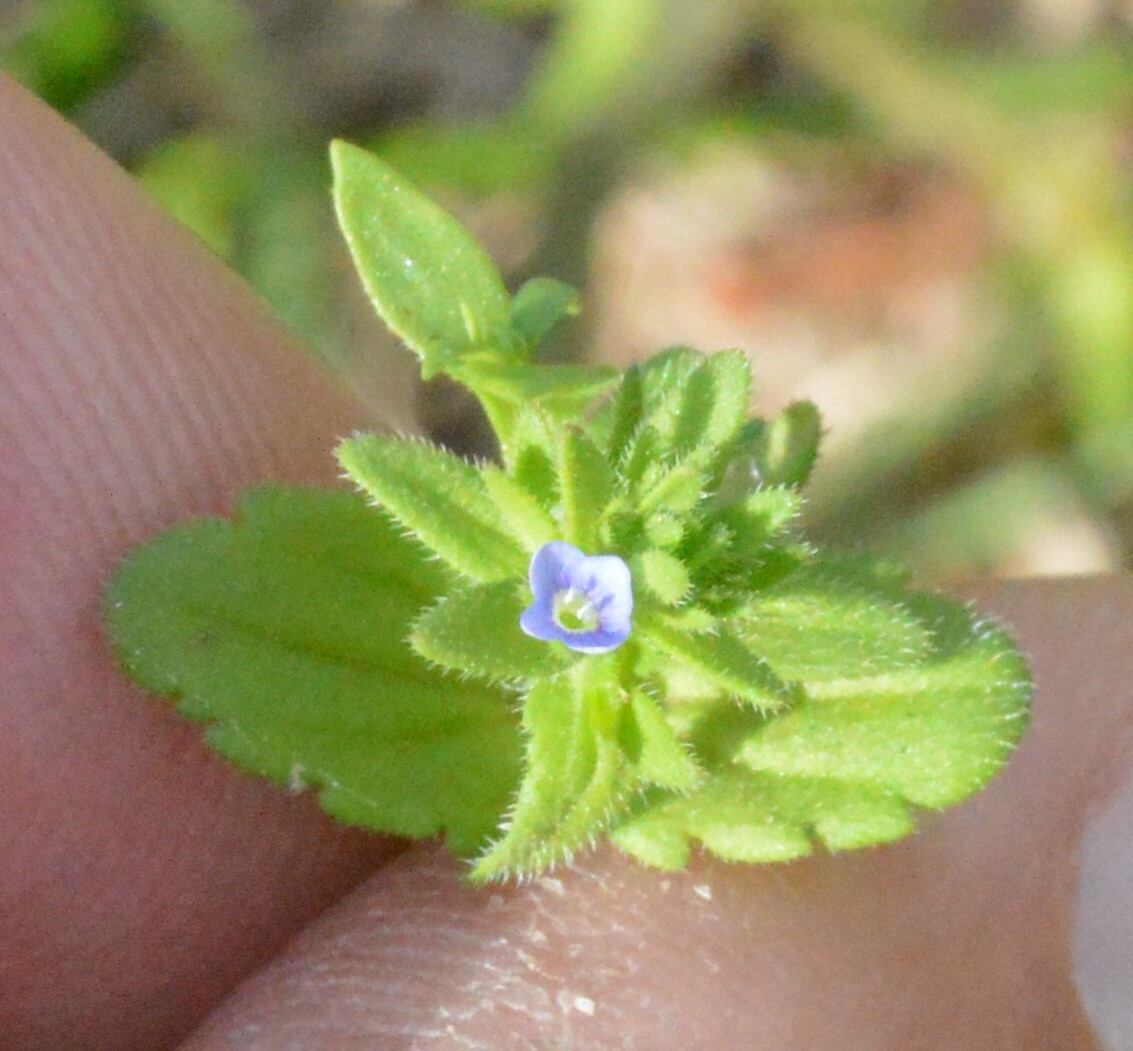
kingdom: Plantae
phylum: Tracheophyta
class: Magnoliopsida
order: Lamiales
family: Plantaginaceae
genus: Veronica
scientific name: Veronica arvensis
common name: Corn speedwell
